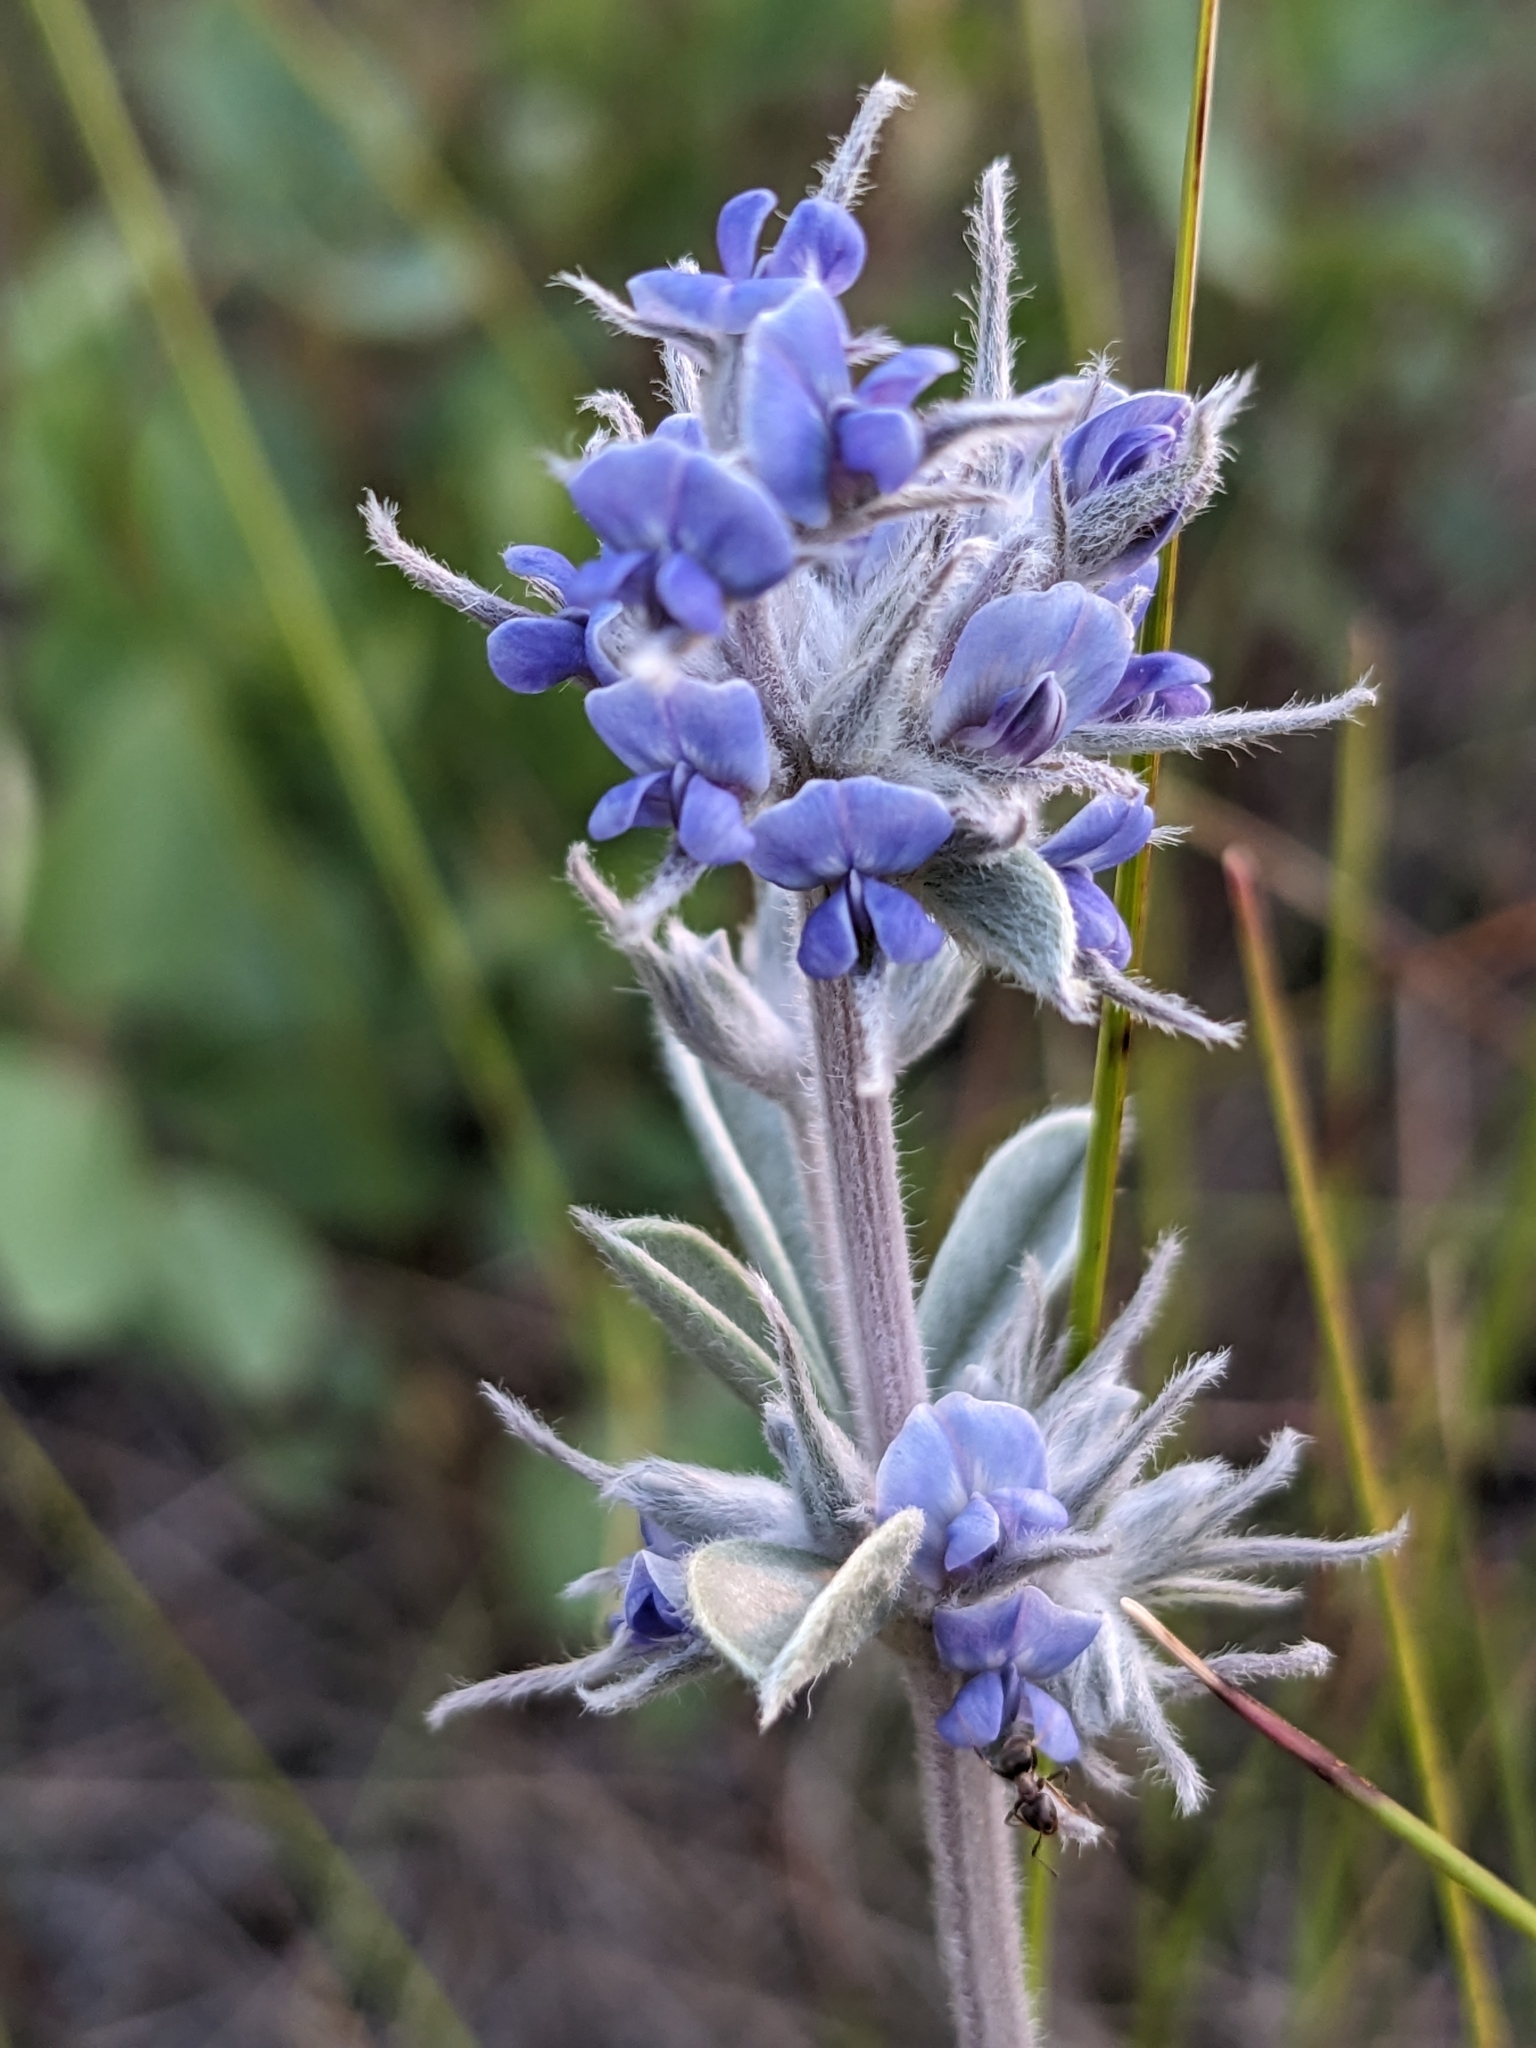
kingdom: Plantae
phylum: Tracheophyta
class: Magnoliopsida
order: Fabales
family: Fabaceae
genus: Pediomelum
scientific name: Pediomelum argophyllum
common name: Silver-leaved indian breadroot
